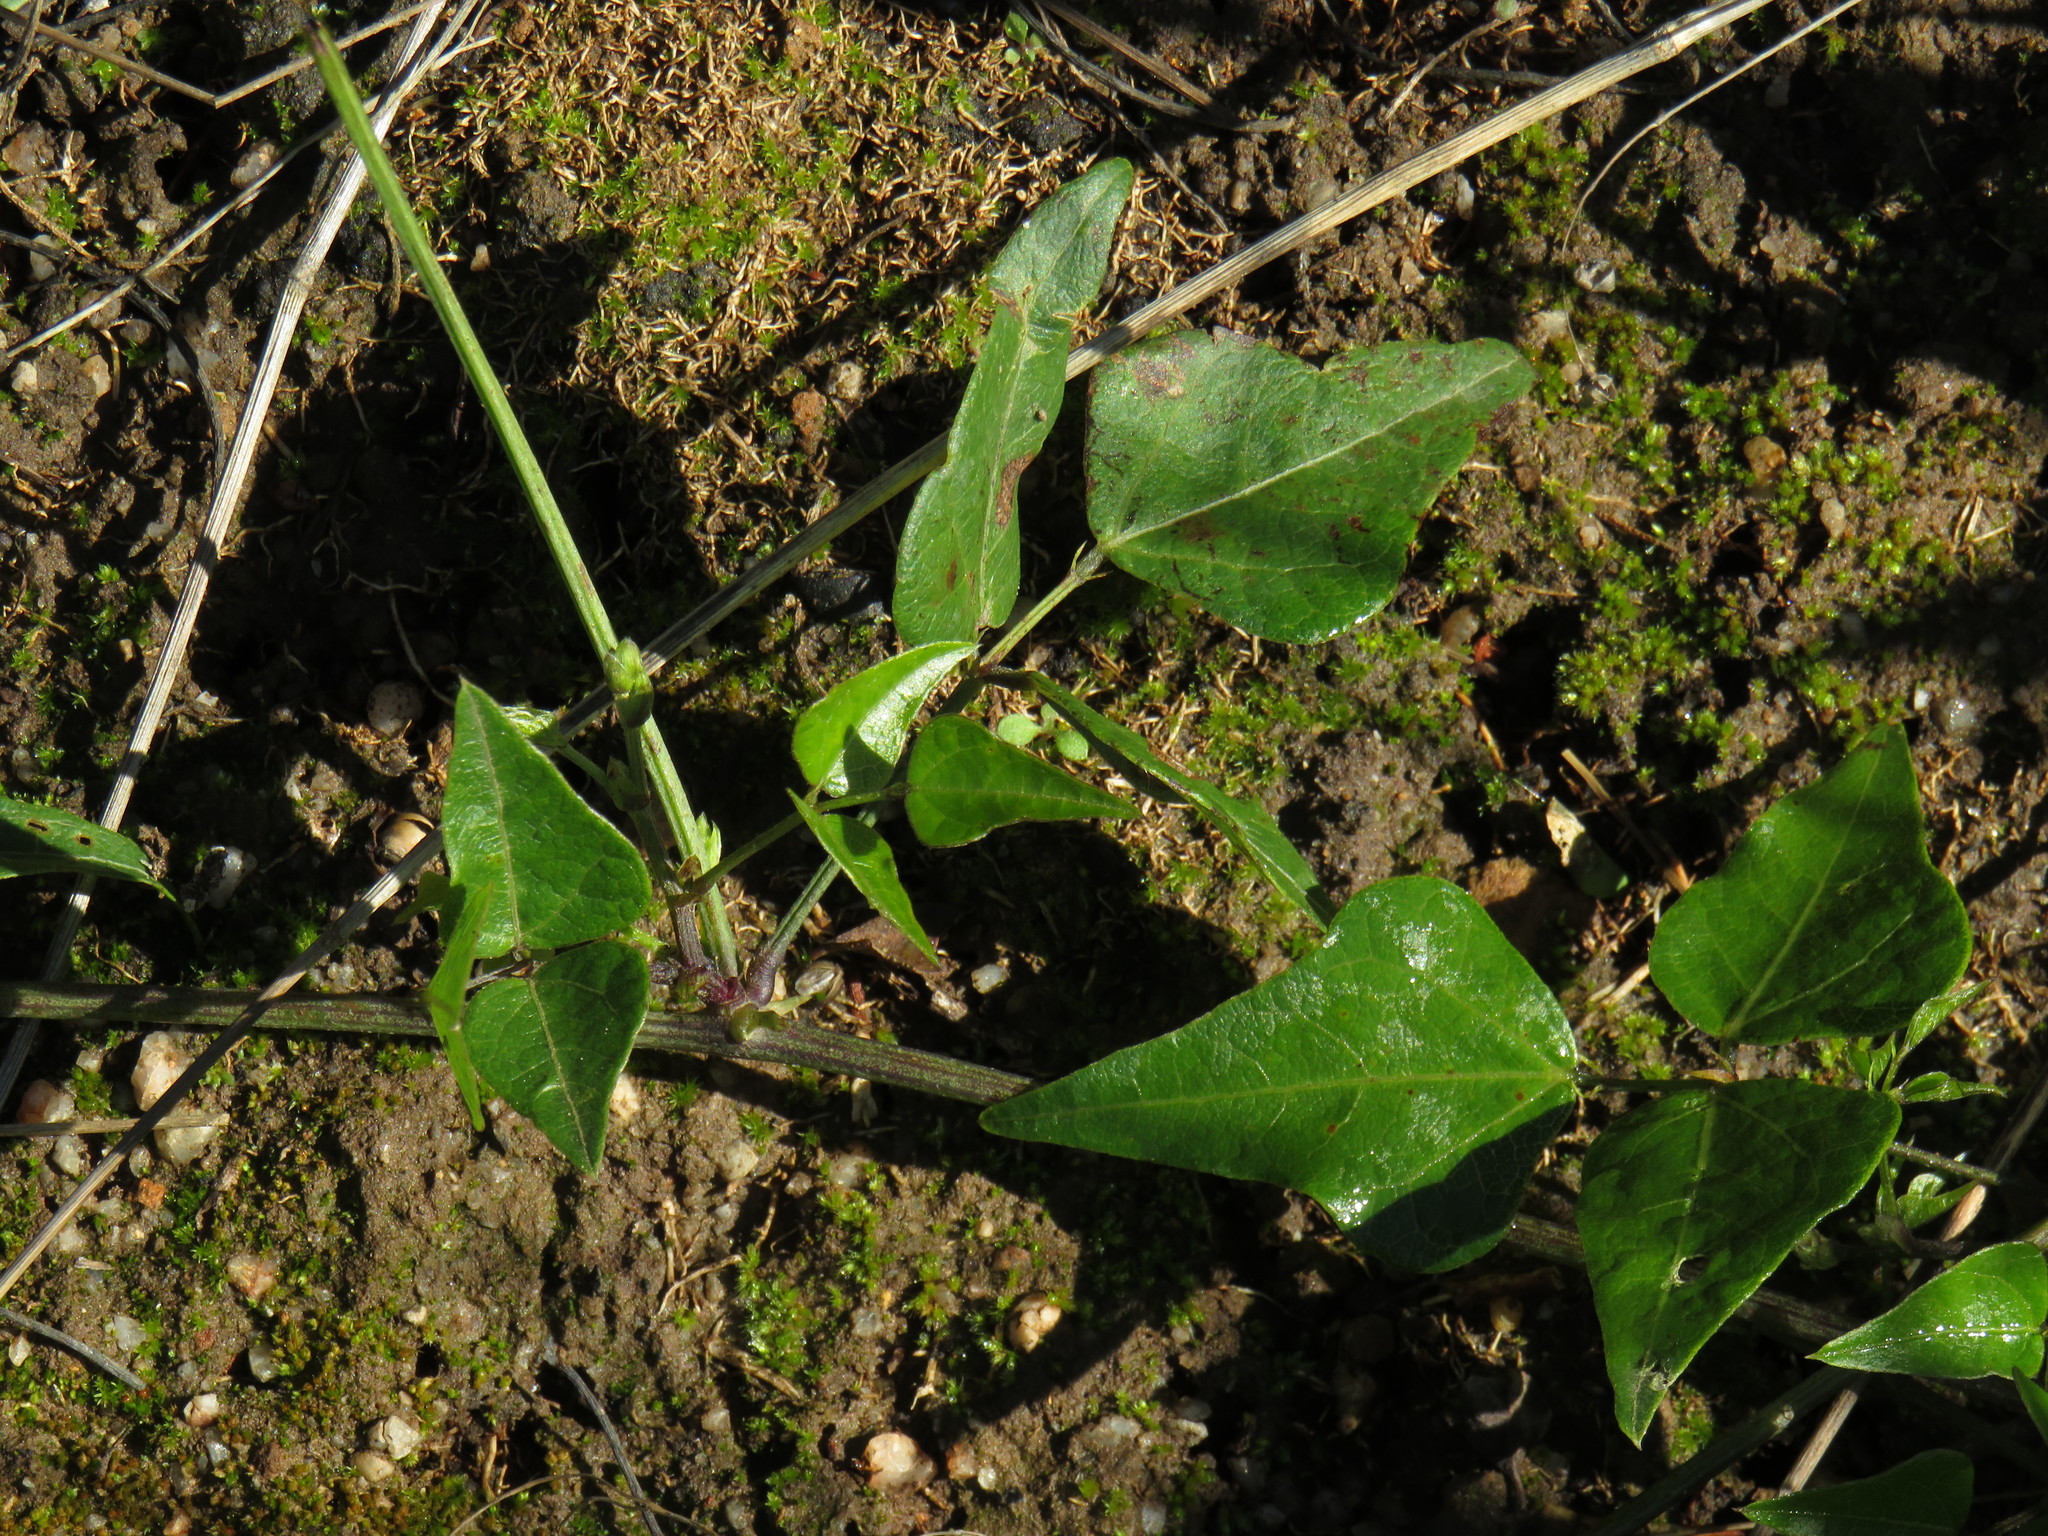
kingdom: Plantae
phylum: Tracheophyta
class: Magnoliopsida
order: Fabales
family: Fabaceae
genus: Dipogon
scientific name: Dipogon lignosus
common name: Okie bean
